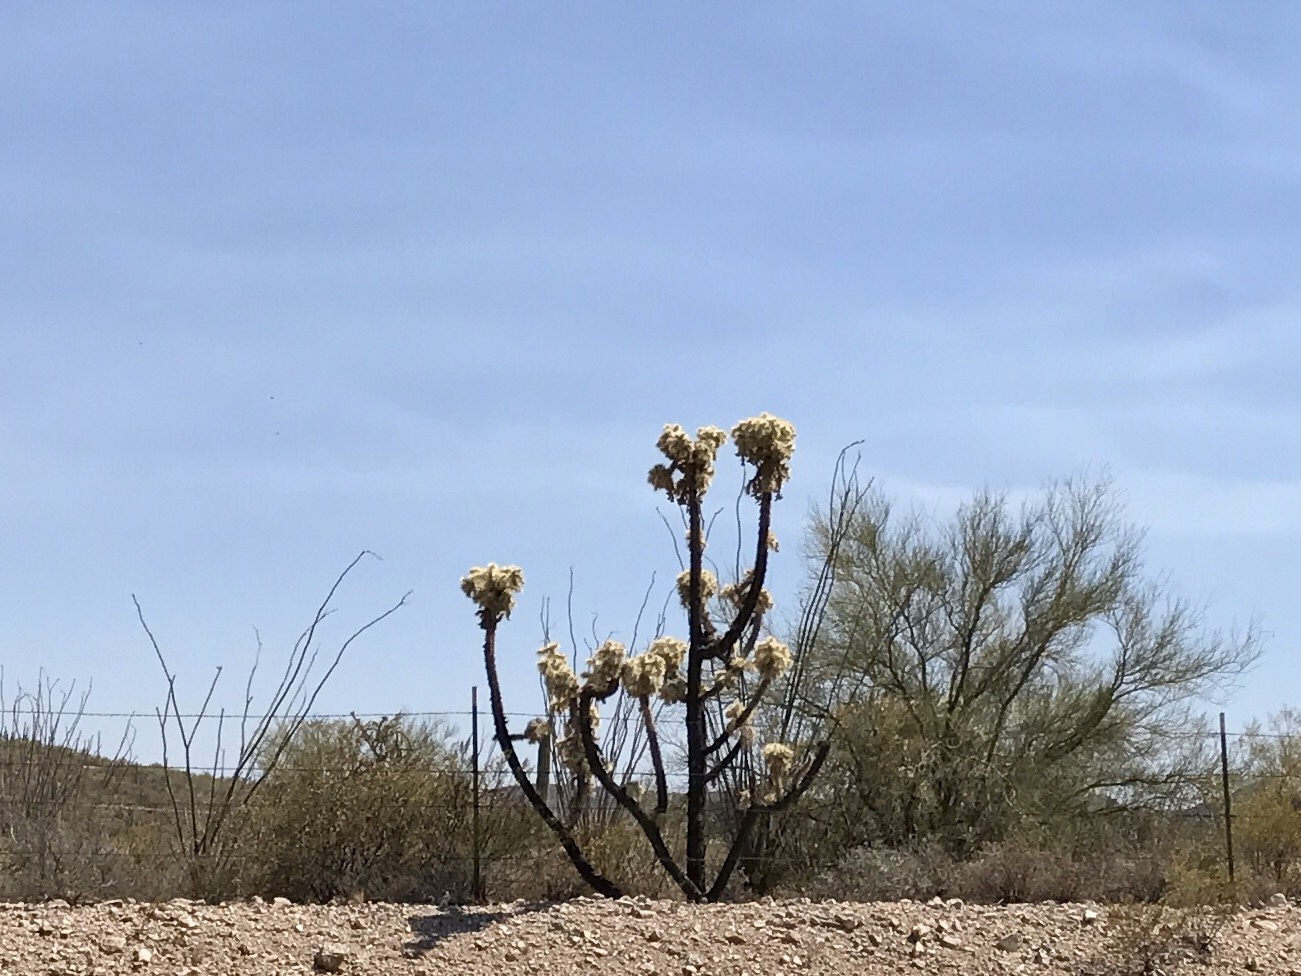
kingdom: Plantae
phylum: Tracheophyta
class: Magnoliopsida
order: Caryophyllales
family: Cactaceae
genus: Cylindropuntia
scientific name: Cylindropuntia fulgida
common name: Jumping cholla
